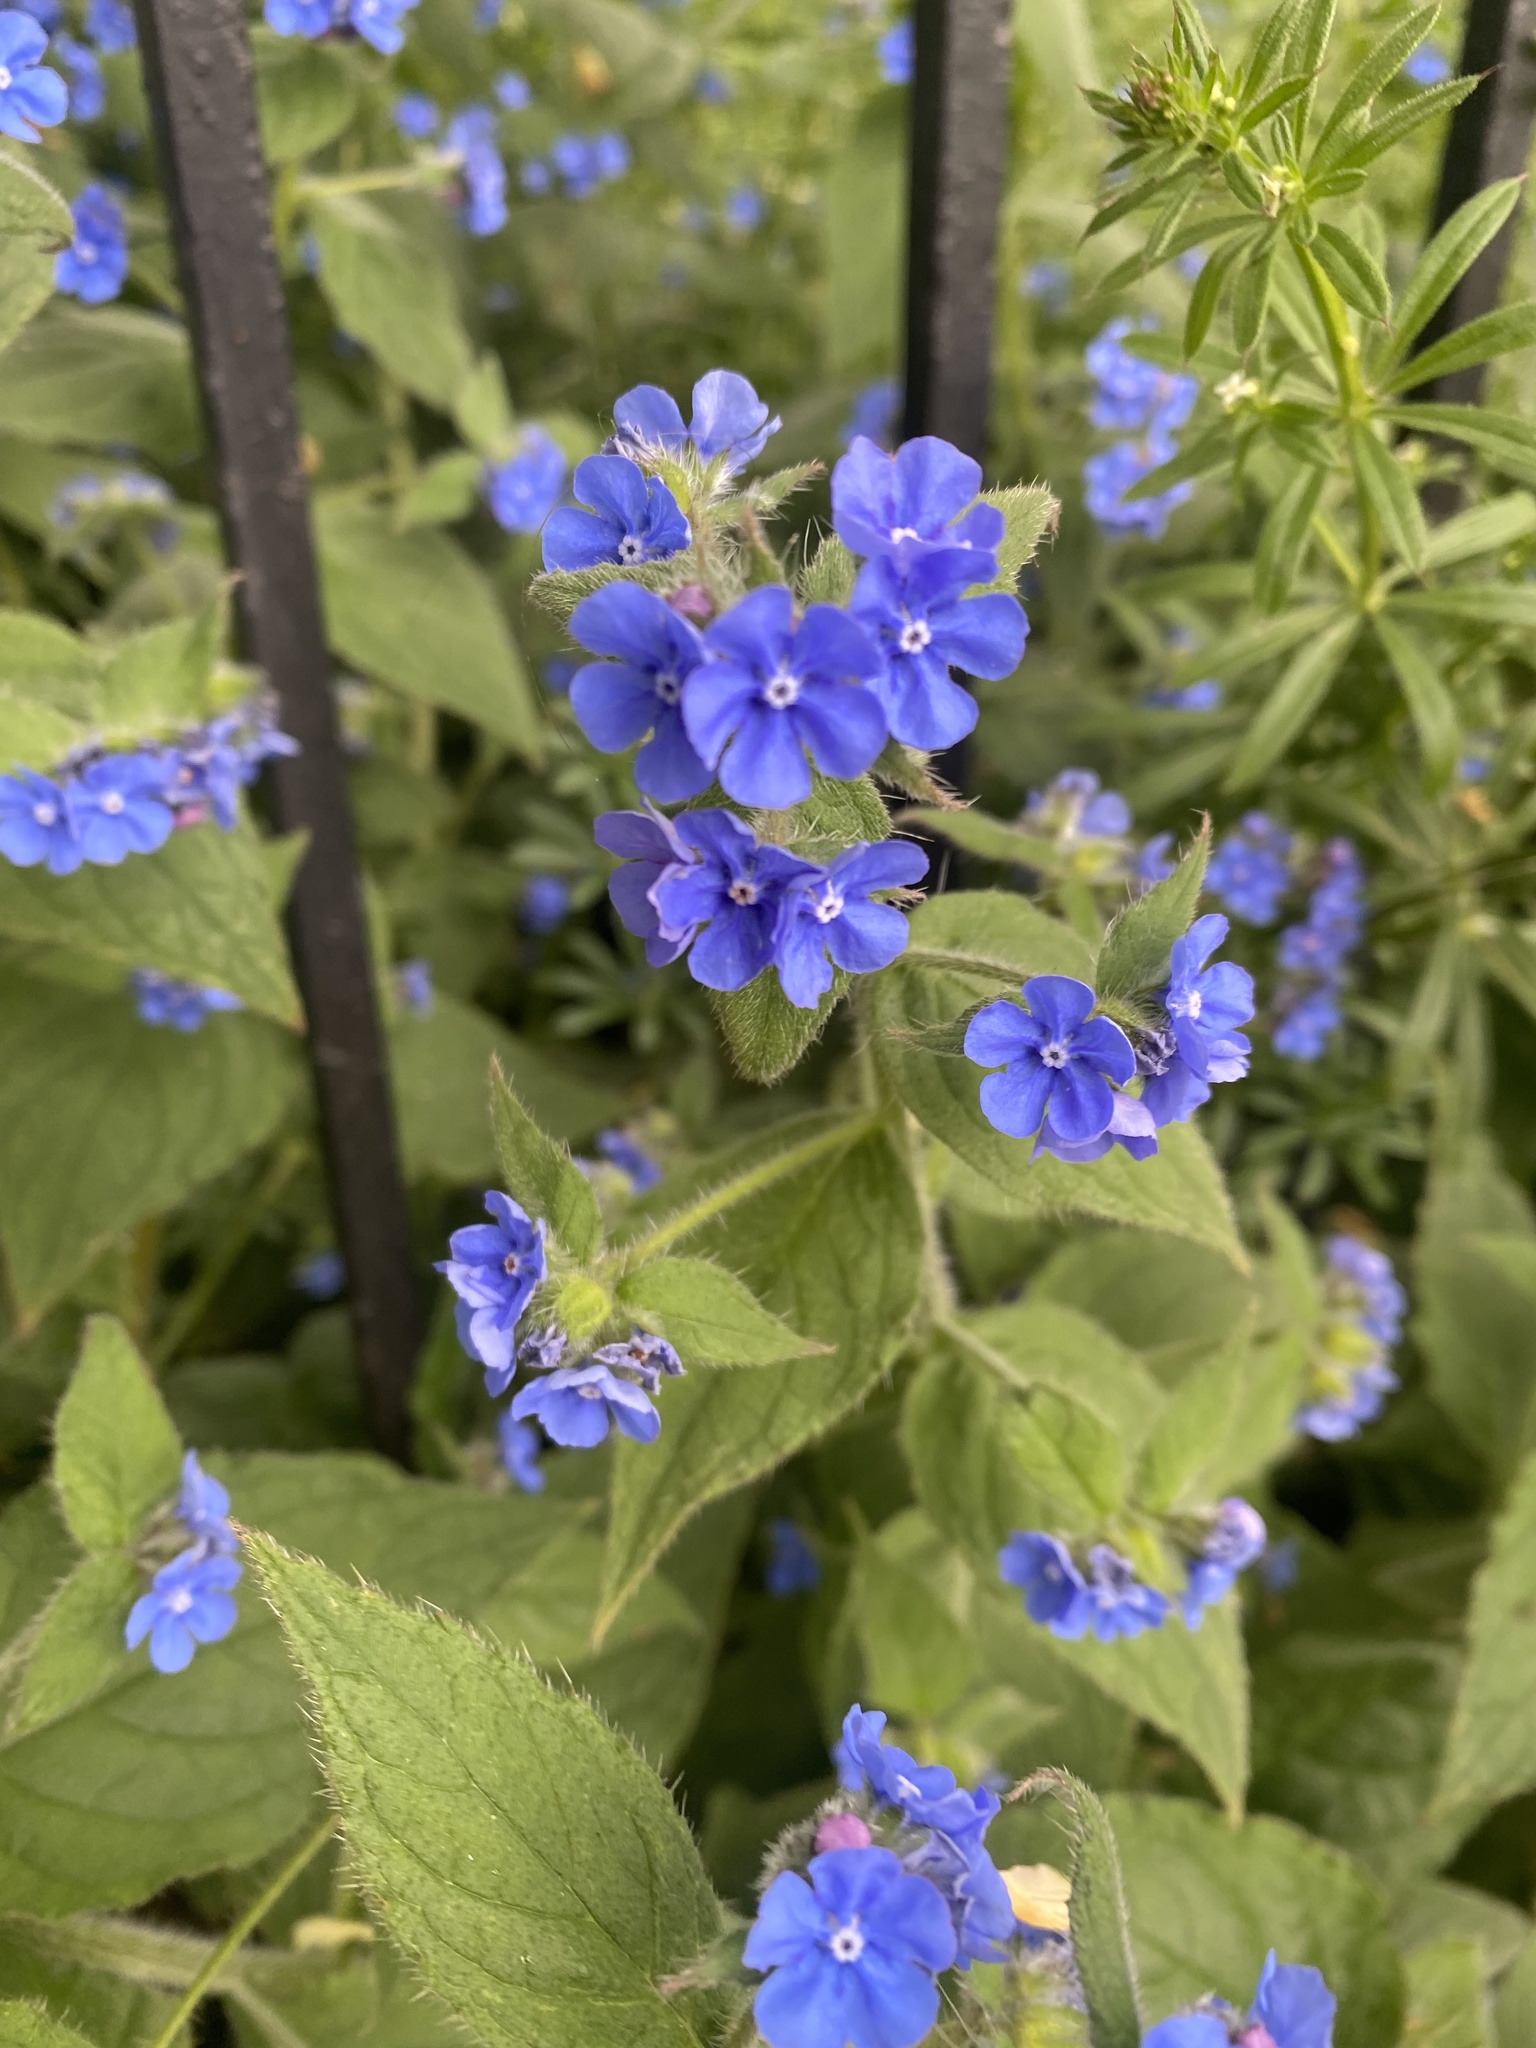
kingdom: Plantae
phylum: Tracheophyta
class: Magnoliopsida
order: Boraginales
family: Boraginaceae
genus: Pentaglottis
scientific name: Pentaglottis sempervirens
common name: Green alkanet
